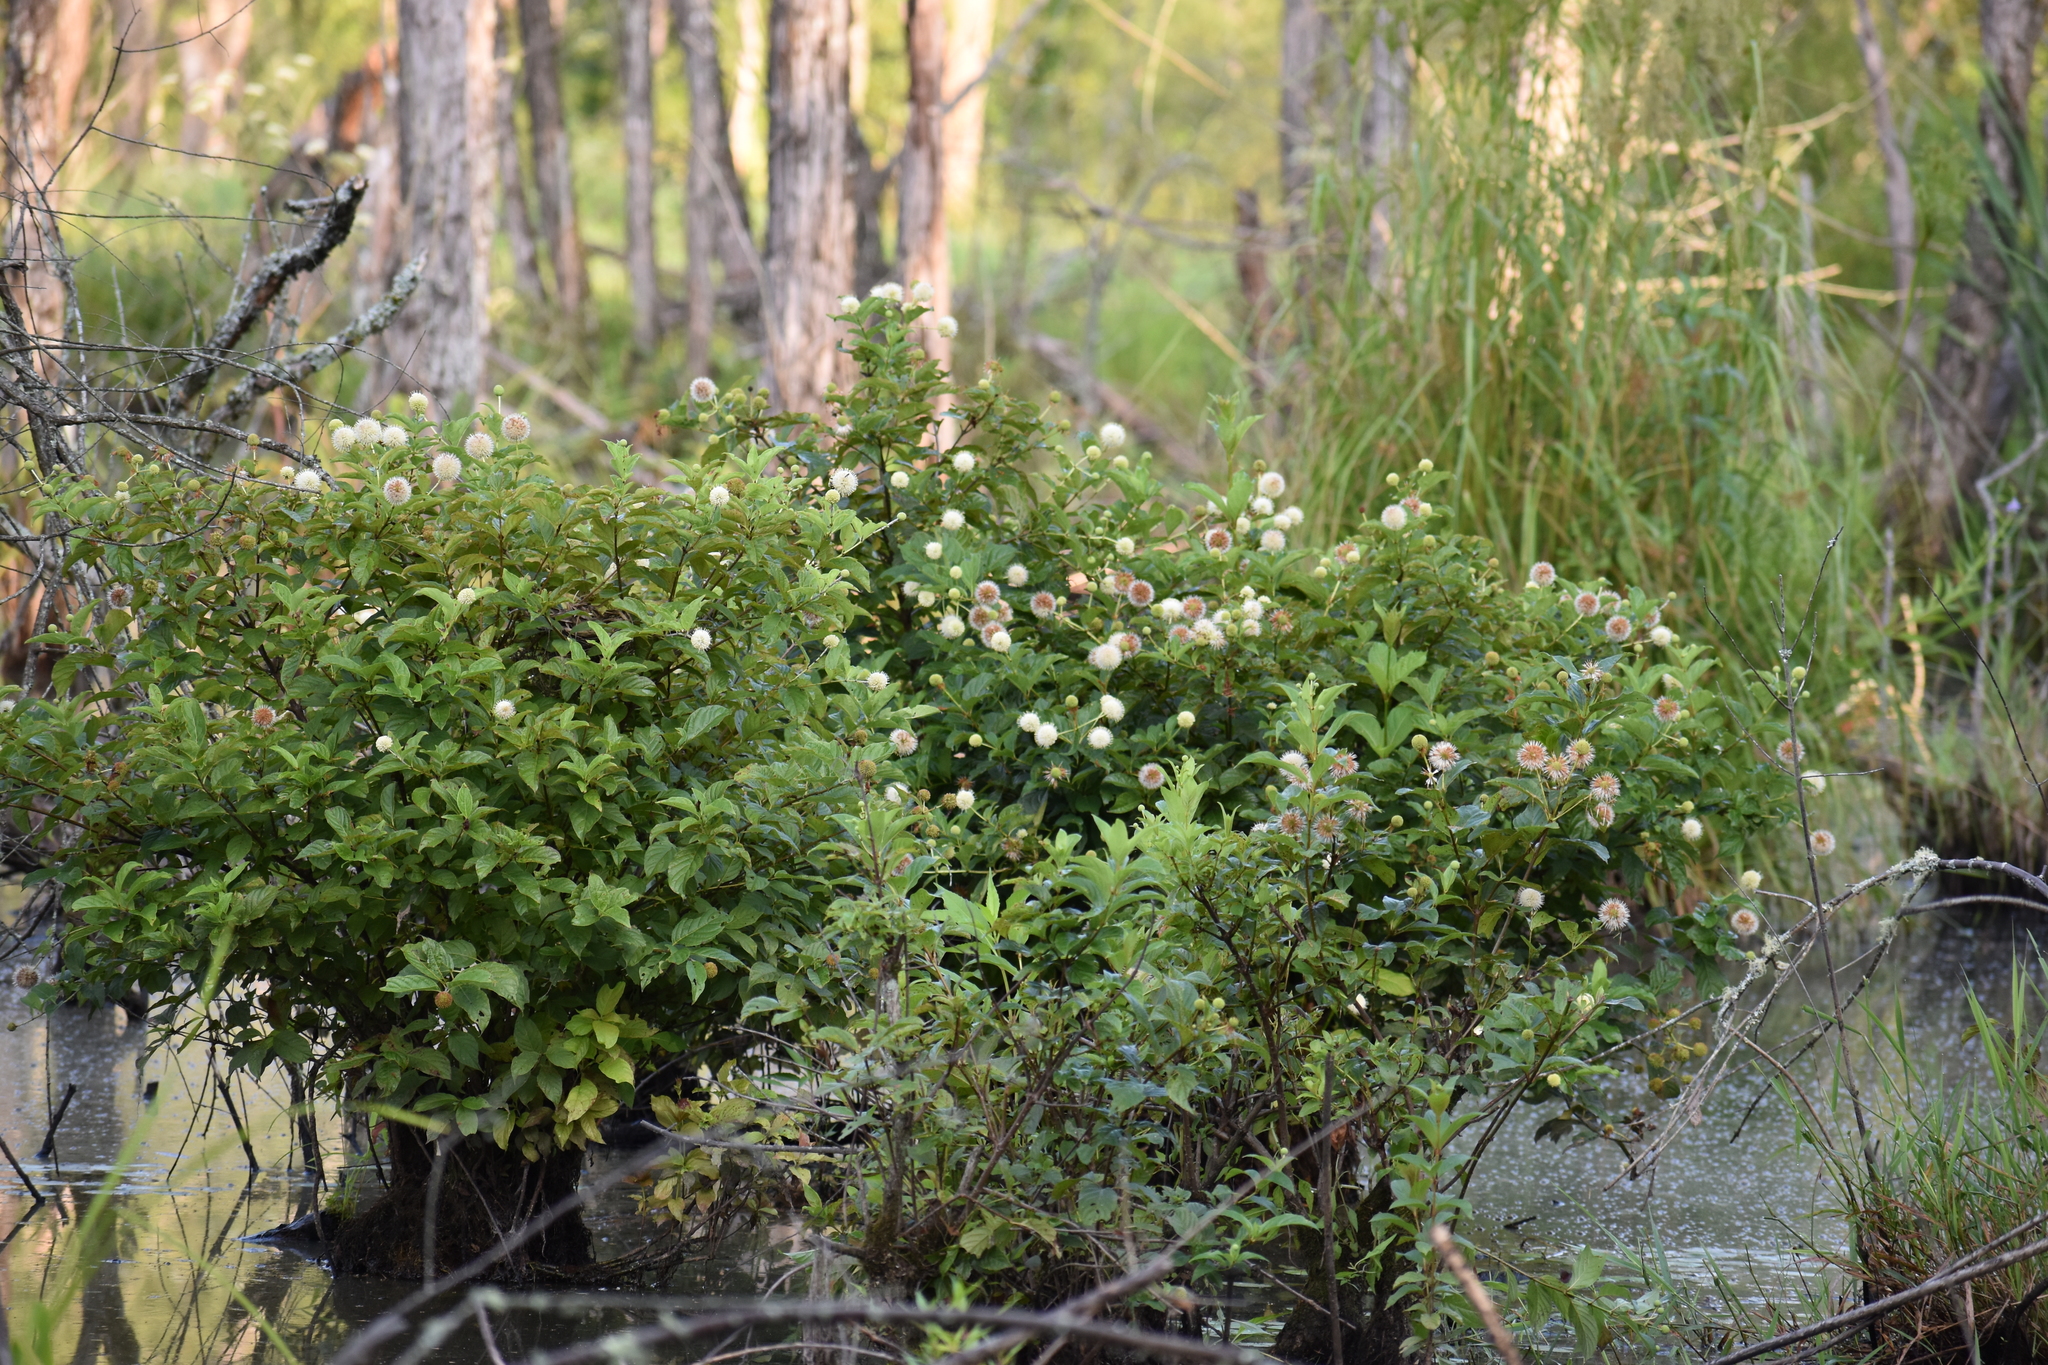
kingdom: Plantae
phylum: Tracheophyta
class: Magnoliopsida
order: Gentianales
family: Rubiaceae
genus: Cephalanthus
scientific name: Cephalanthus occidentalis
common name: Button-willow
